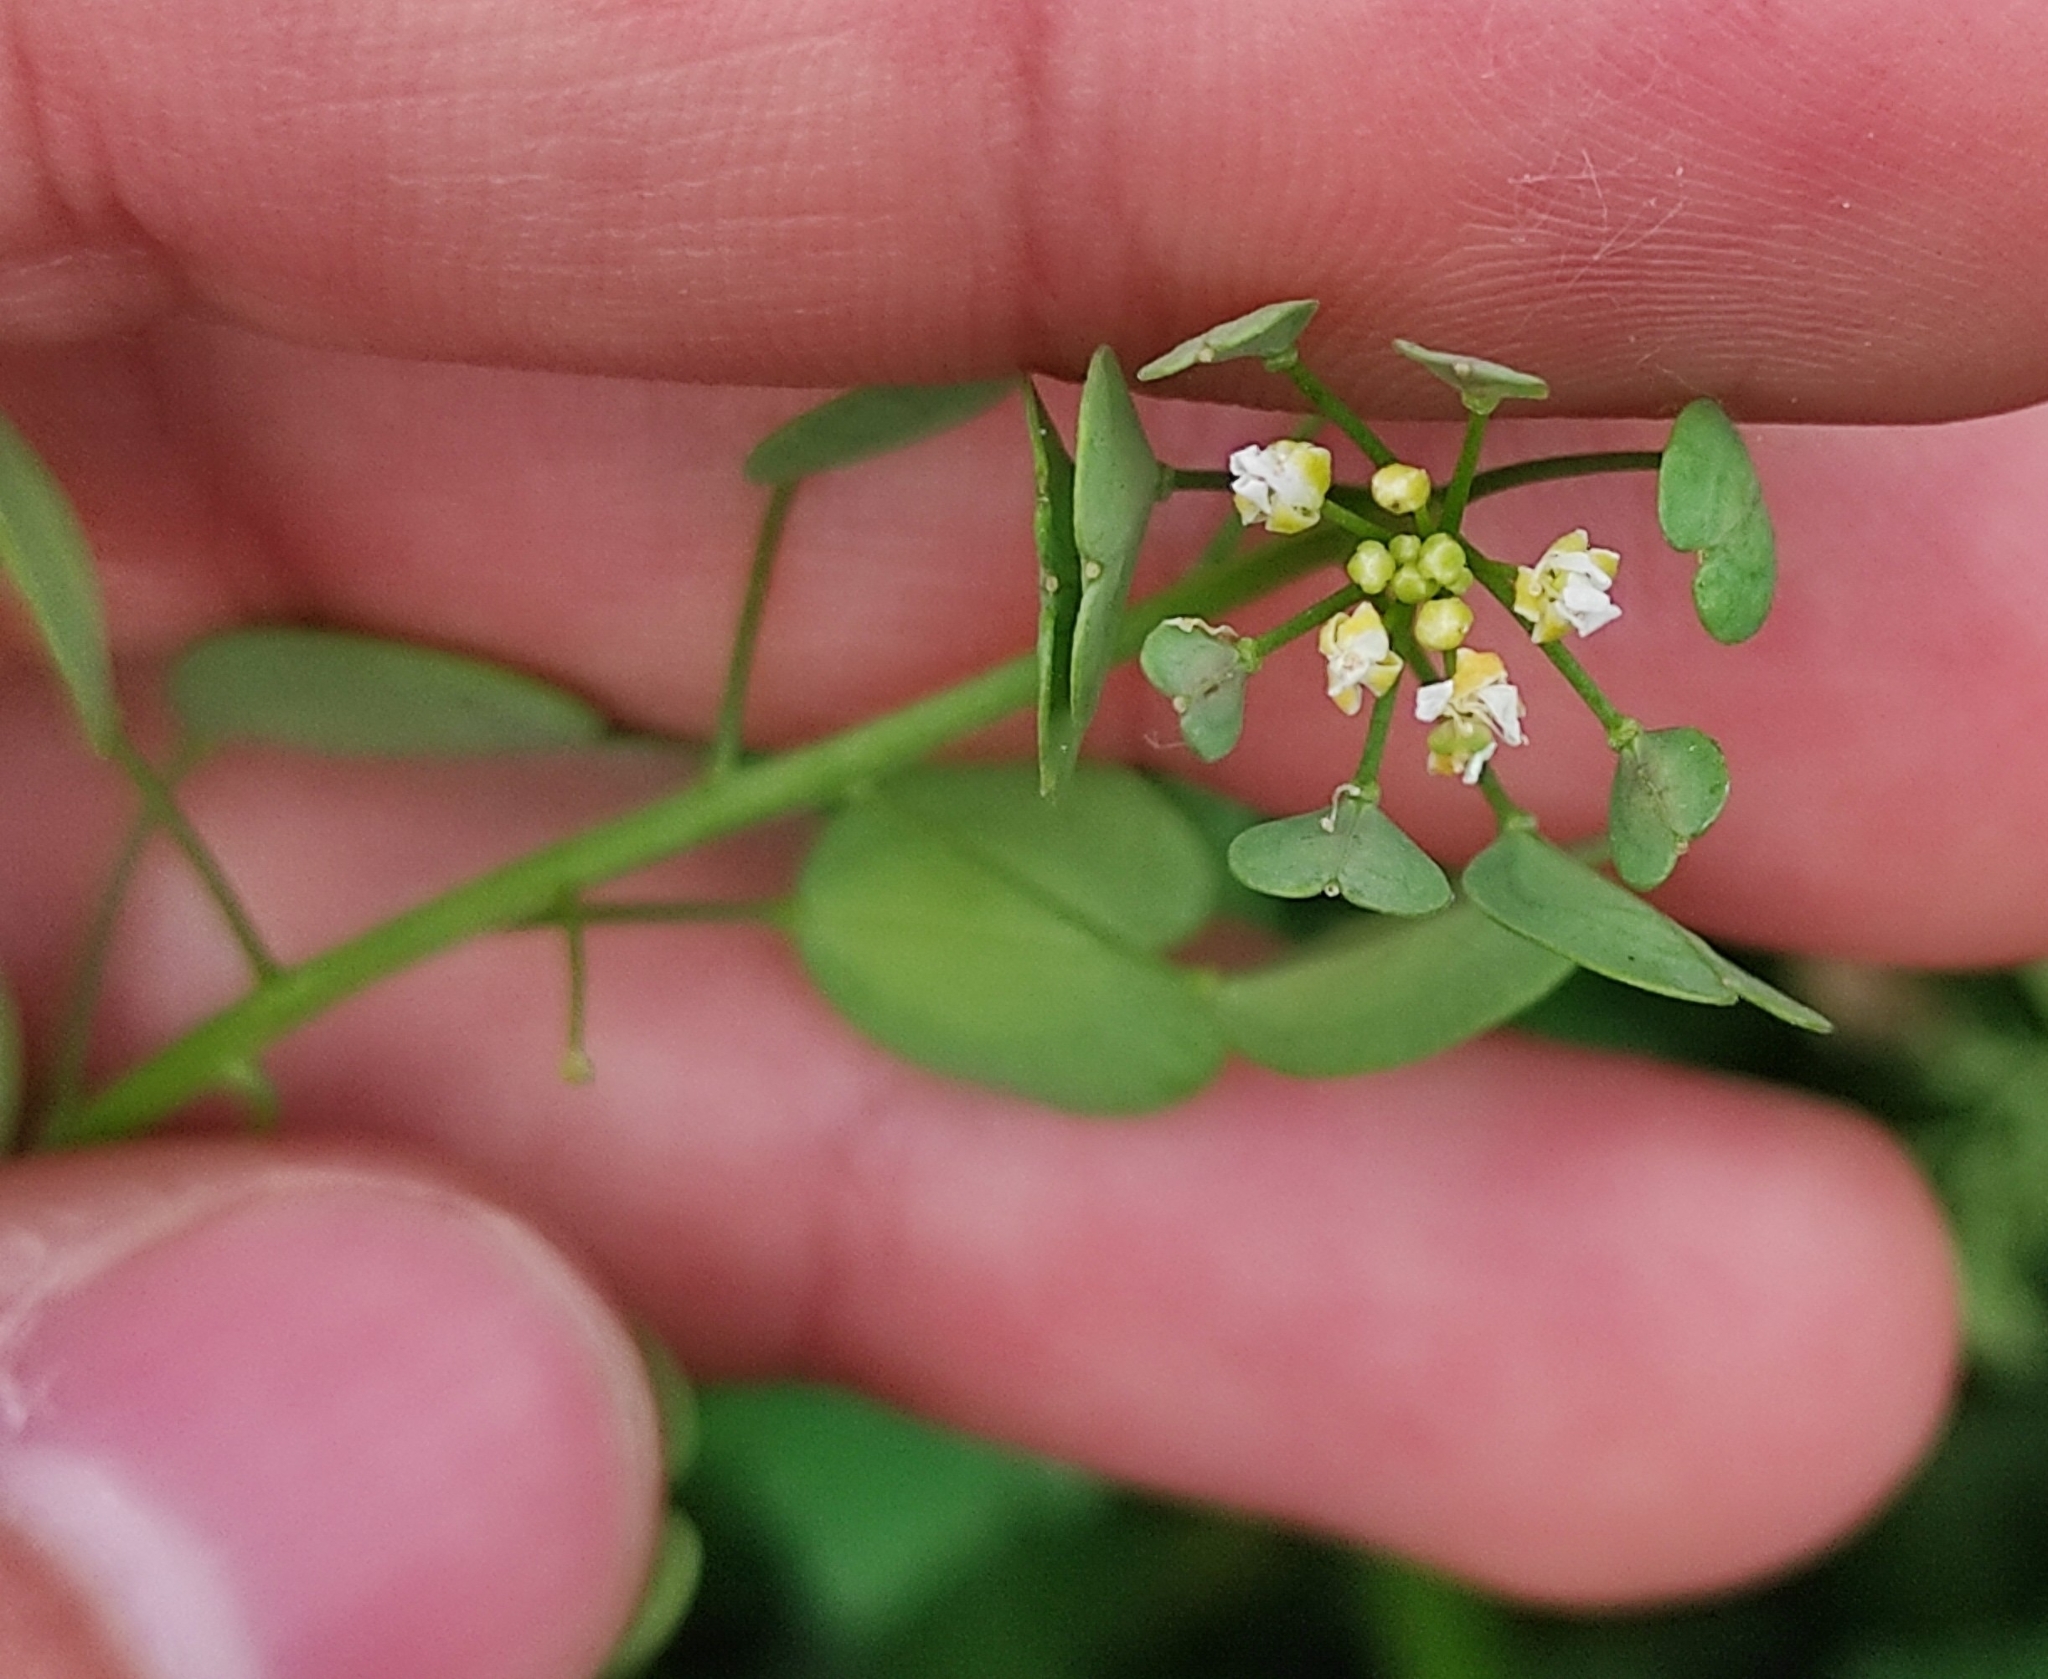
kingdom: Plantae
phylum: Tracheophyta
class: Magnoliopsida
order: Brassicales
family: Brassicaceae
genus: Thlaspi
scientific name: Thlaspi arvense
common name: Field pennycress
